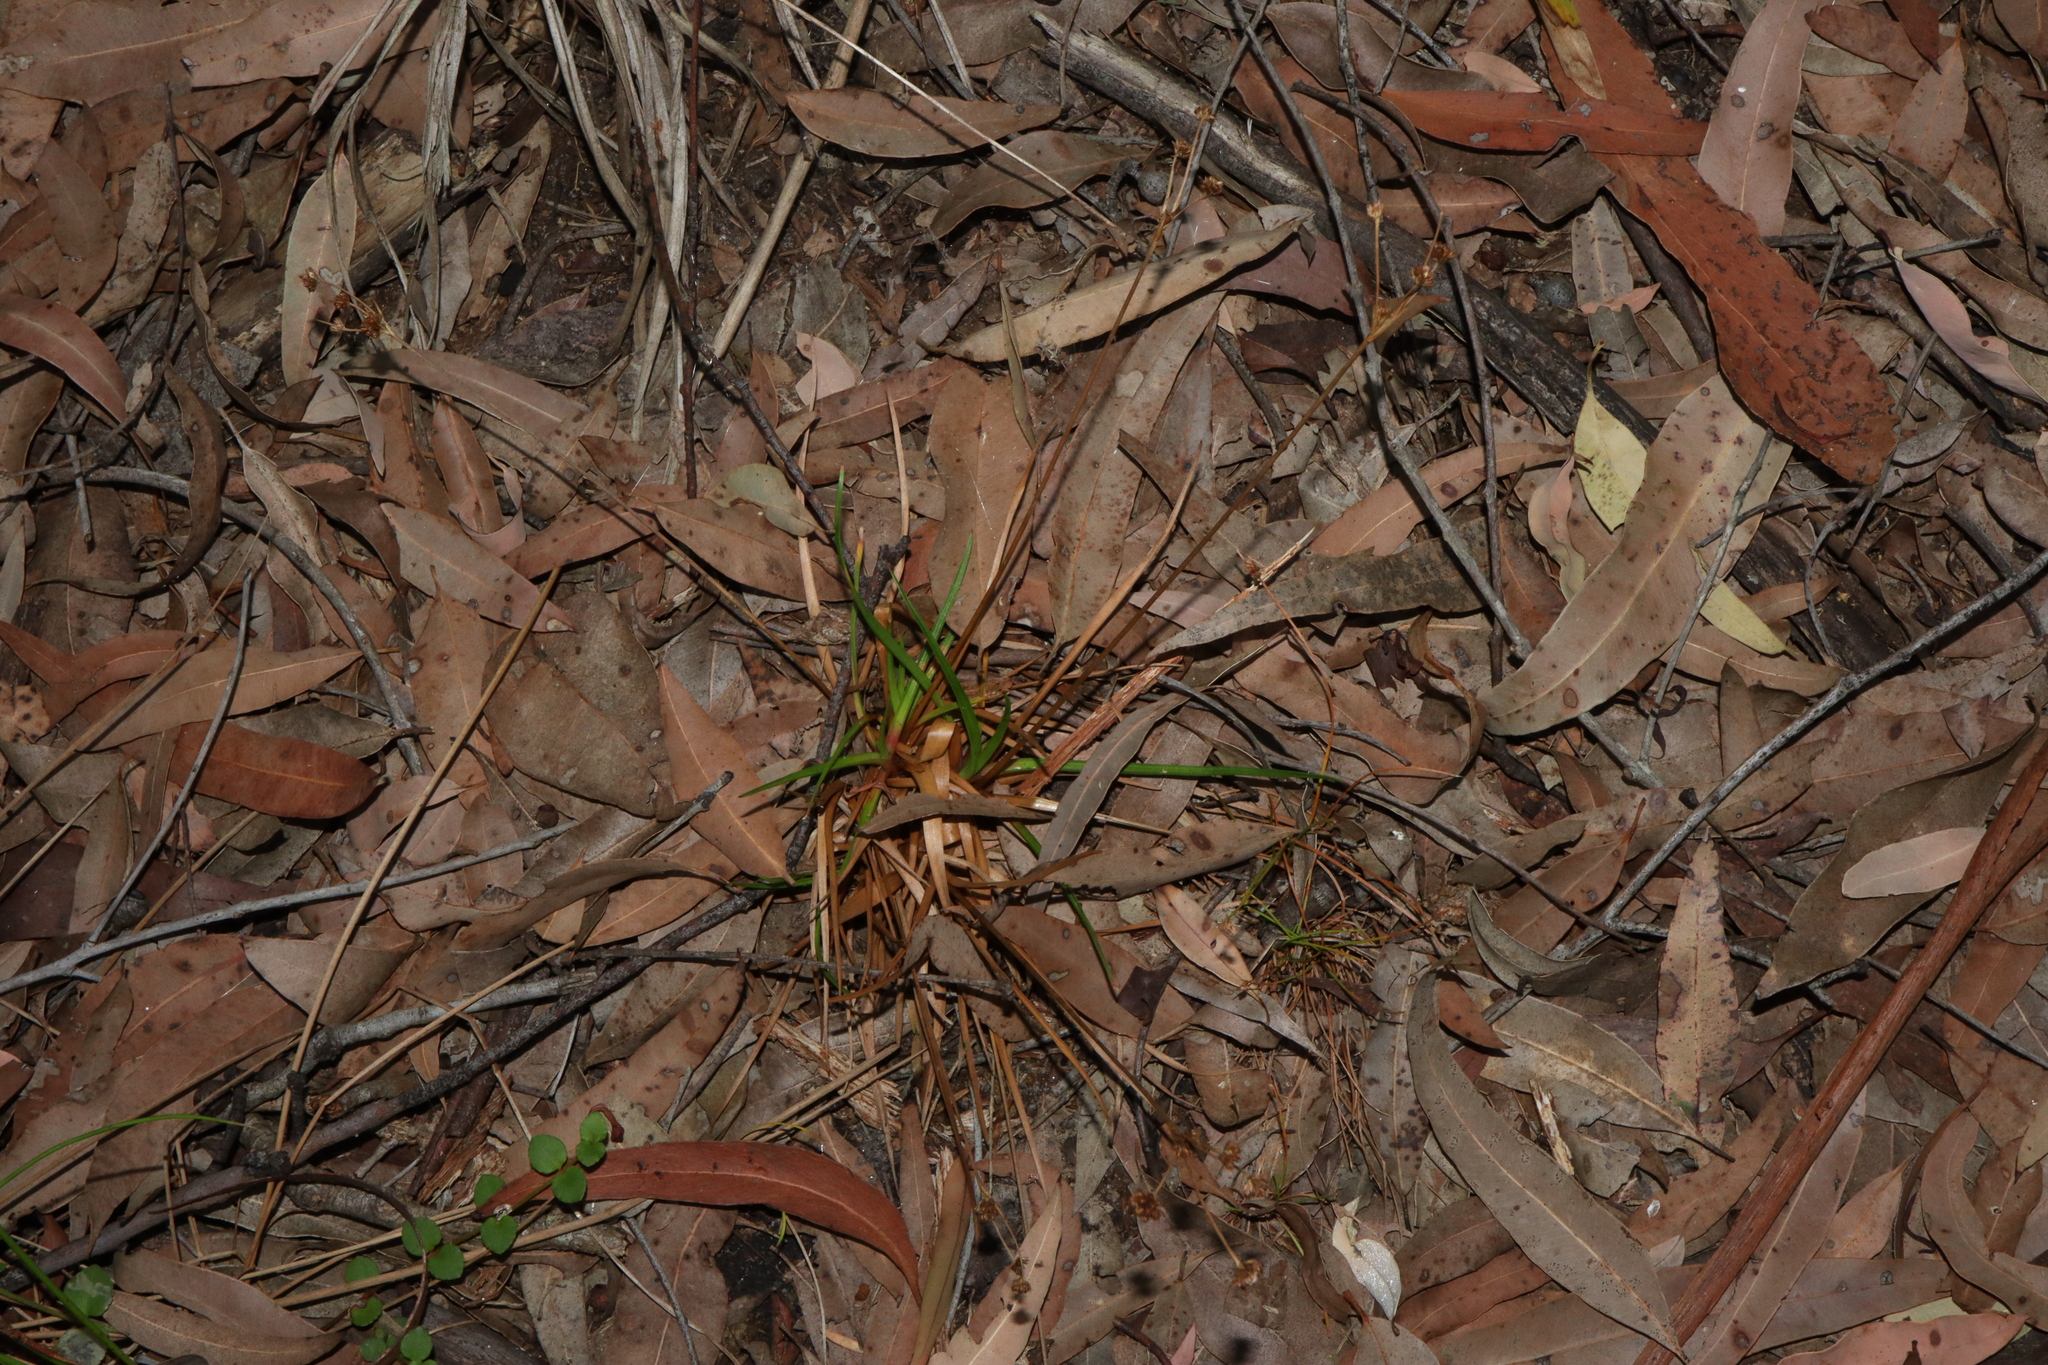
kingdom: Plantae
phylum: Tracheophyta
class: Liliopsida
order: Poales
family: Juncaceae
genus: Juncus
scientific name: Juncus planifolius
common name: Broadleaf rush
